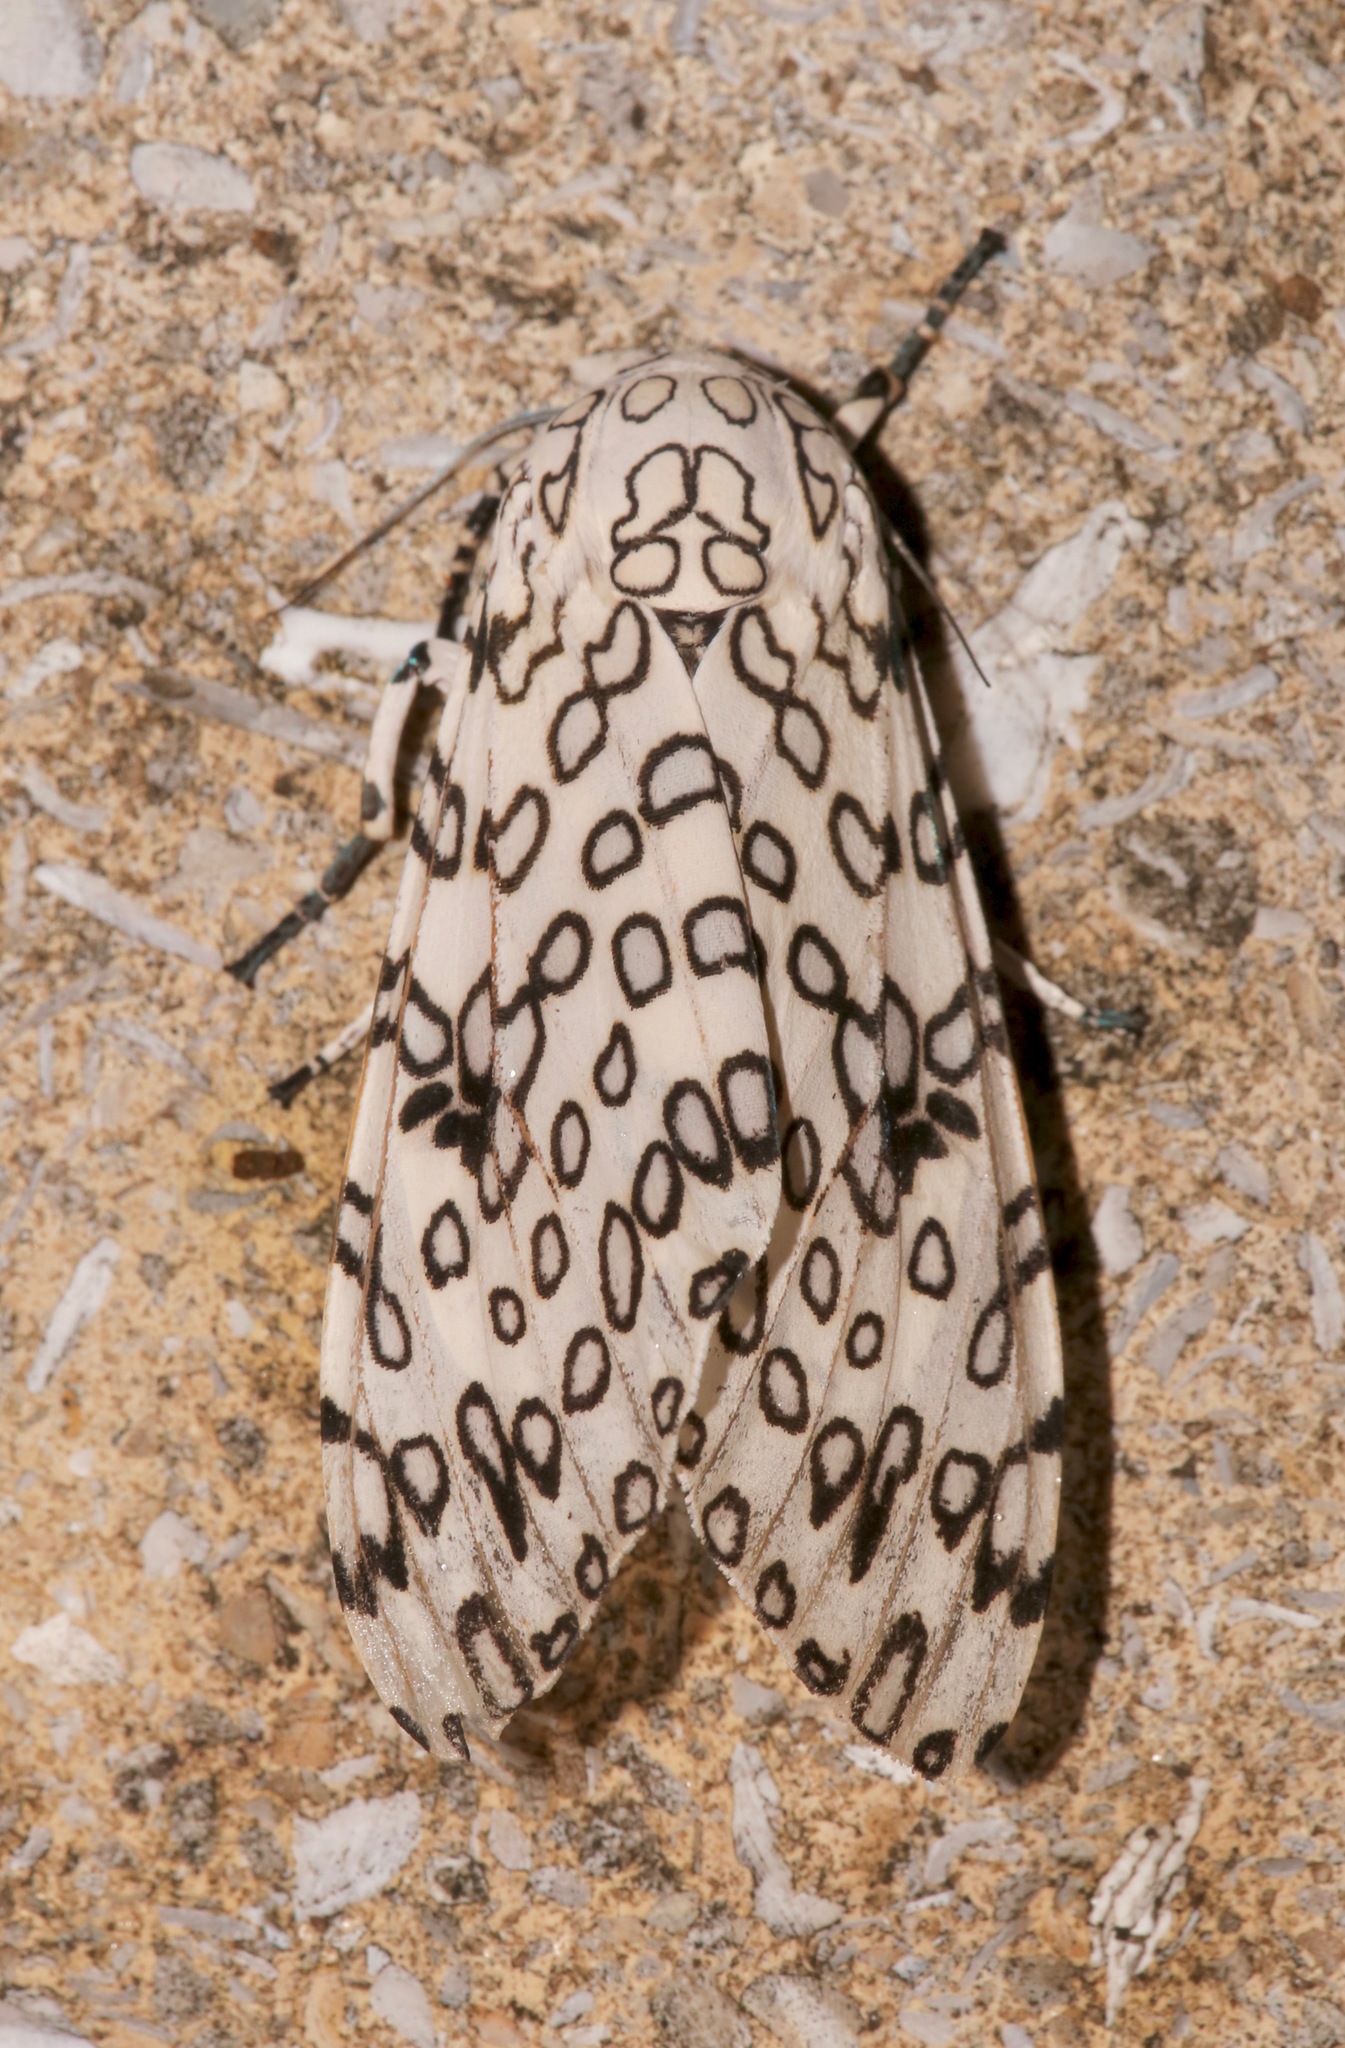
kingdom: Animalia
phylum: Arthropoda
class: Insecta
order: Lepidoptera
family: Erebidae
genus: Hypercompe
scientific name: Hypercompe scribonia
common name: Giant leopard moth
